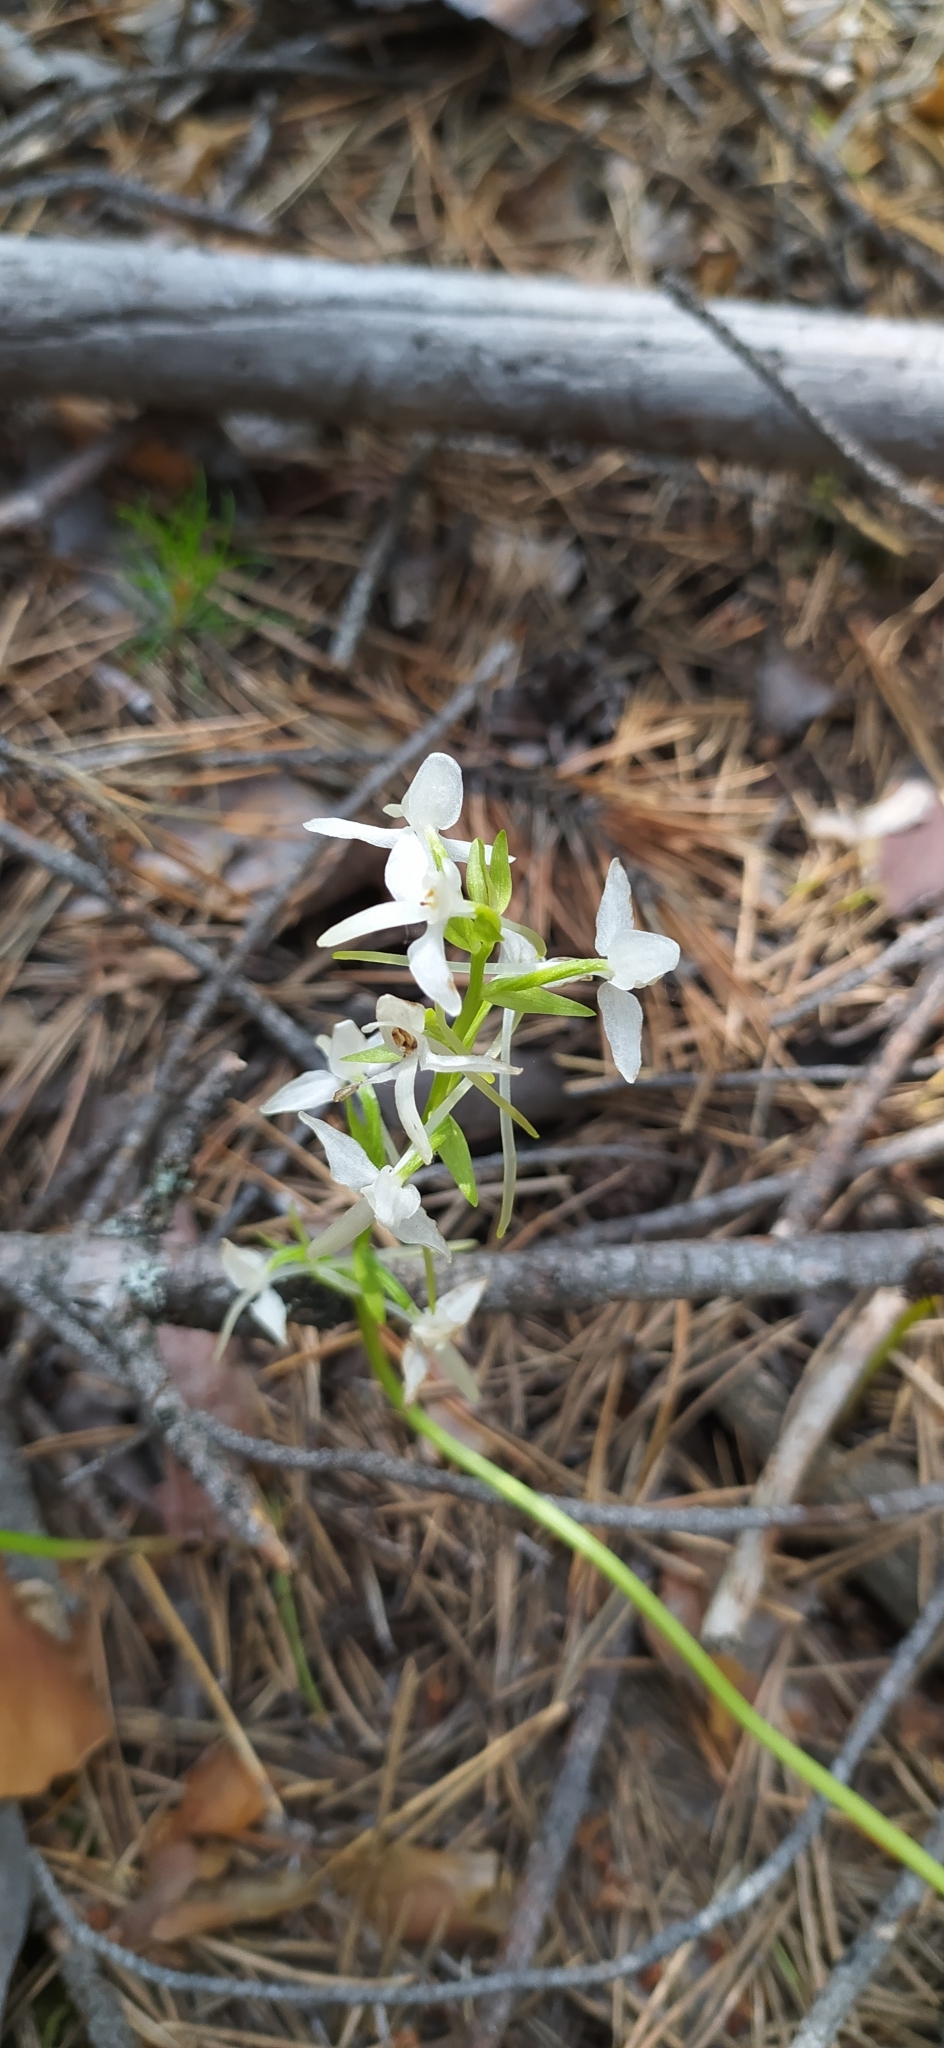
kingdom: Plantae
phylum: Tracheophyta
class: Liliopsida
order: Asparagales
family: Orchidaceae
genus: Platanthera
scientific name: Platanthera bifolia
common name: Lesser butterfly-orchid
